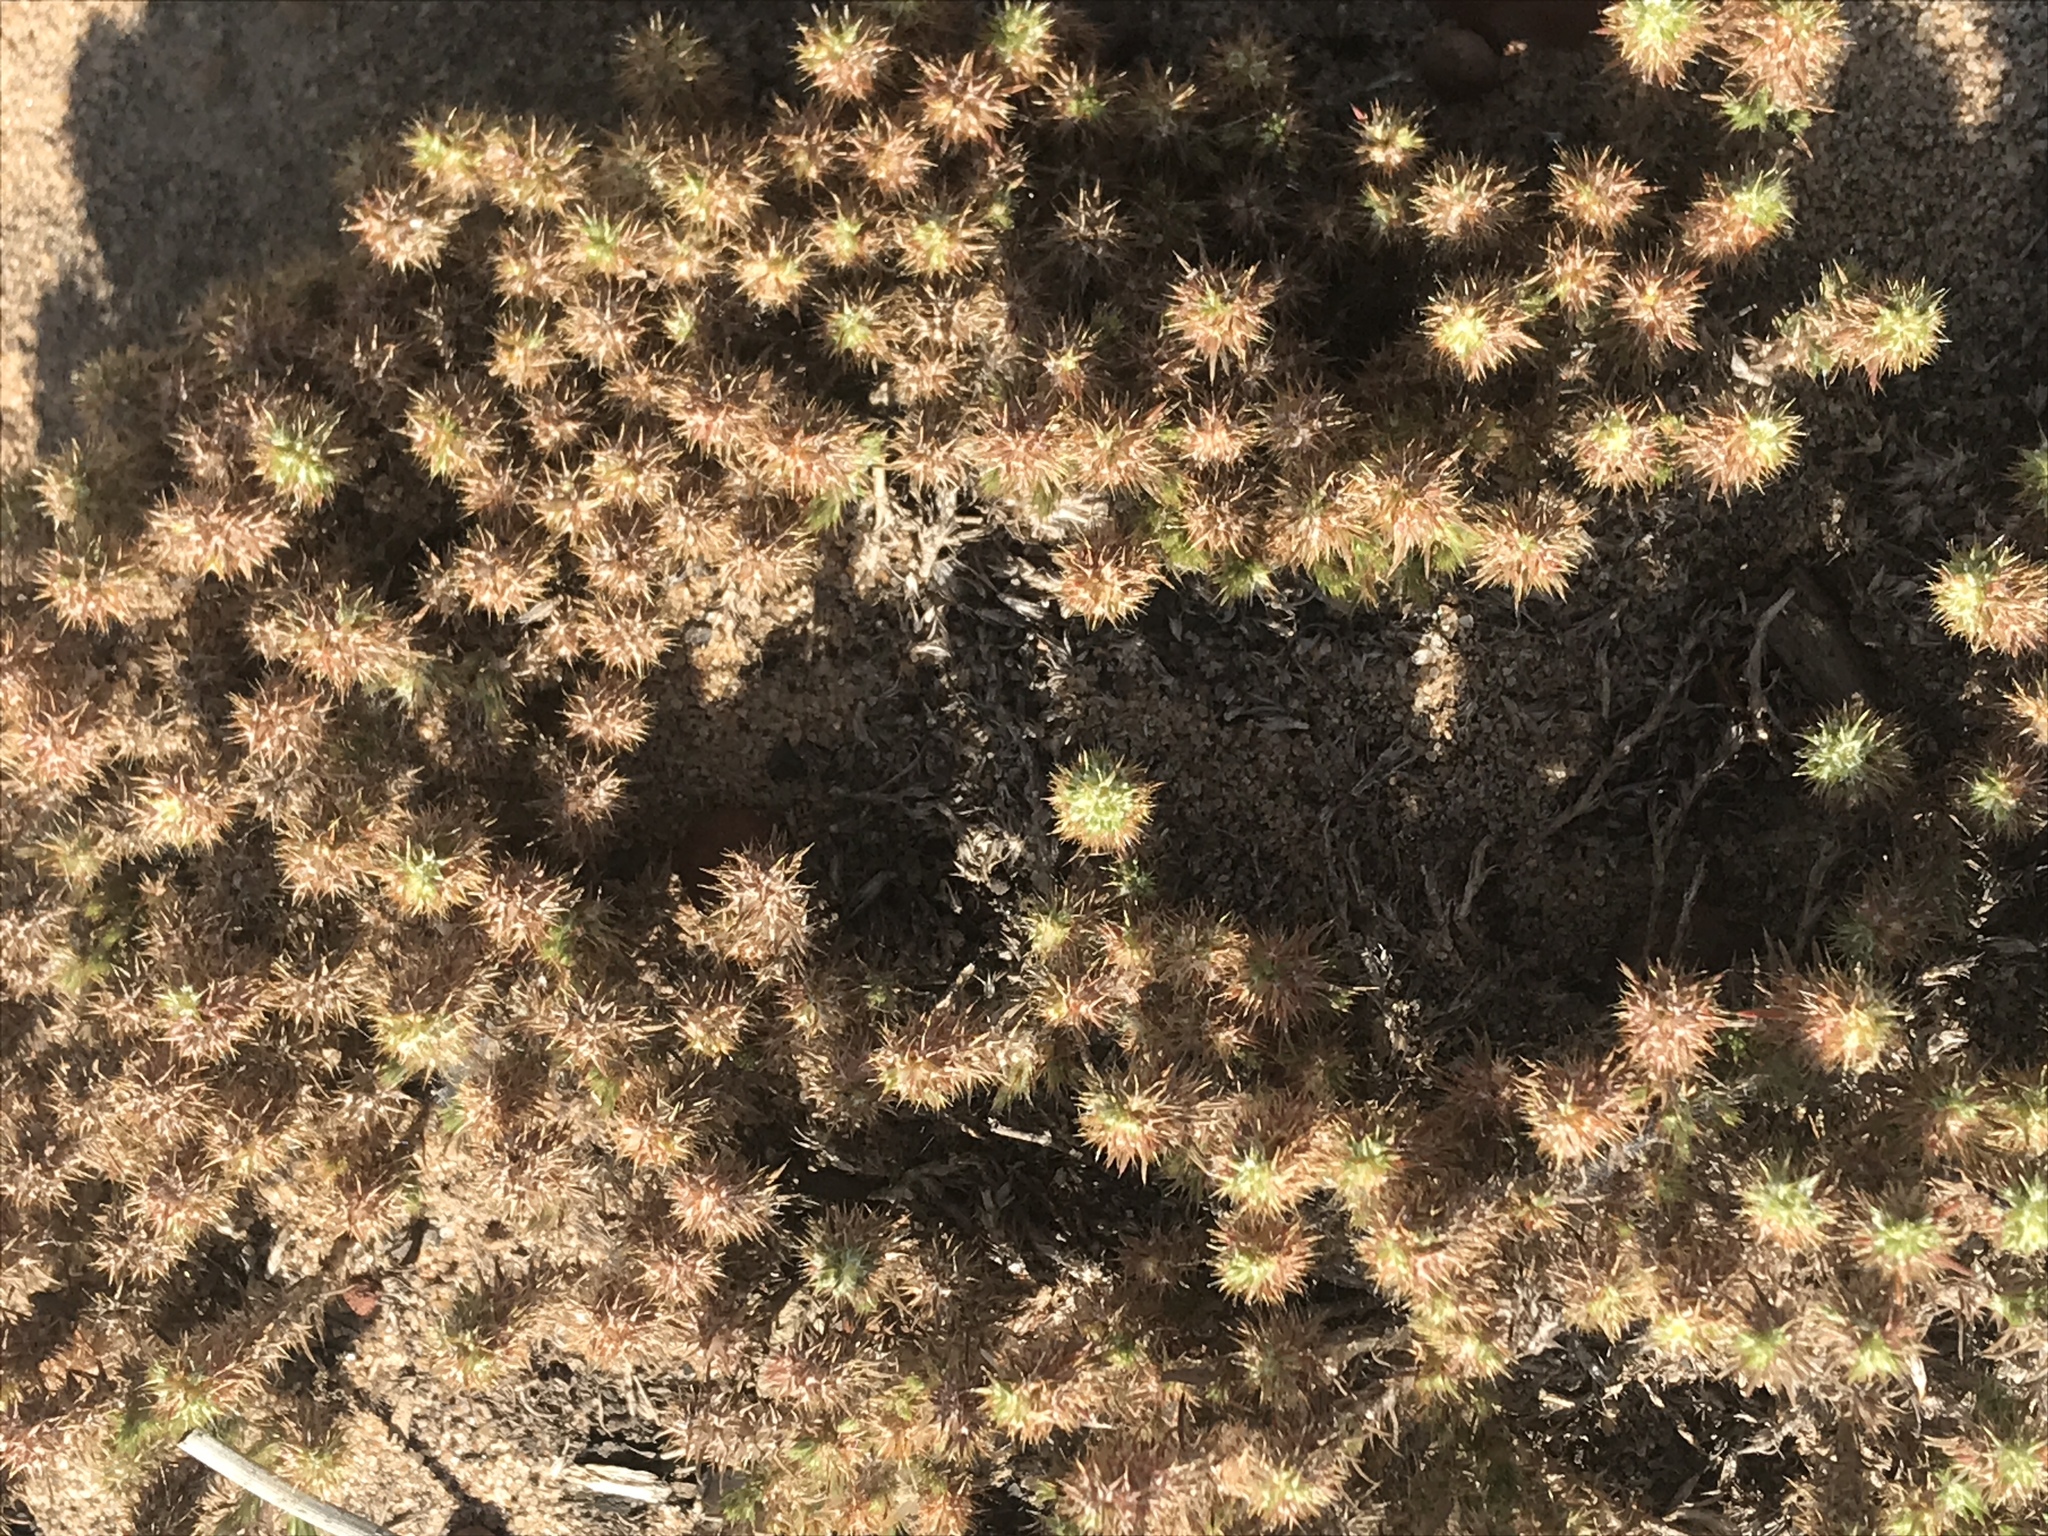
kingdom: Plantae
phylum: Tracheophyta
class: Magnoliopsida
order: Caryophyllales
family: Caryophyllaceae
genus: Cardionema
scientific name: Cardionema ramosissima
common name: Sandcarpet
